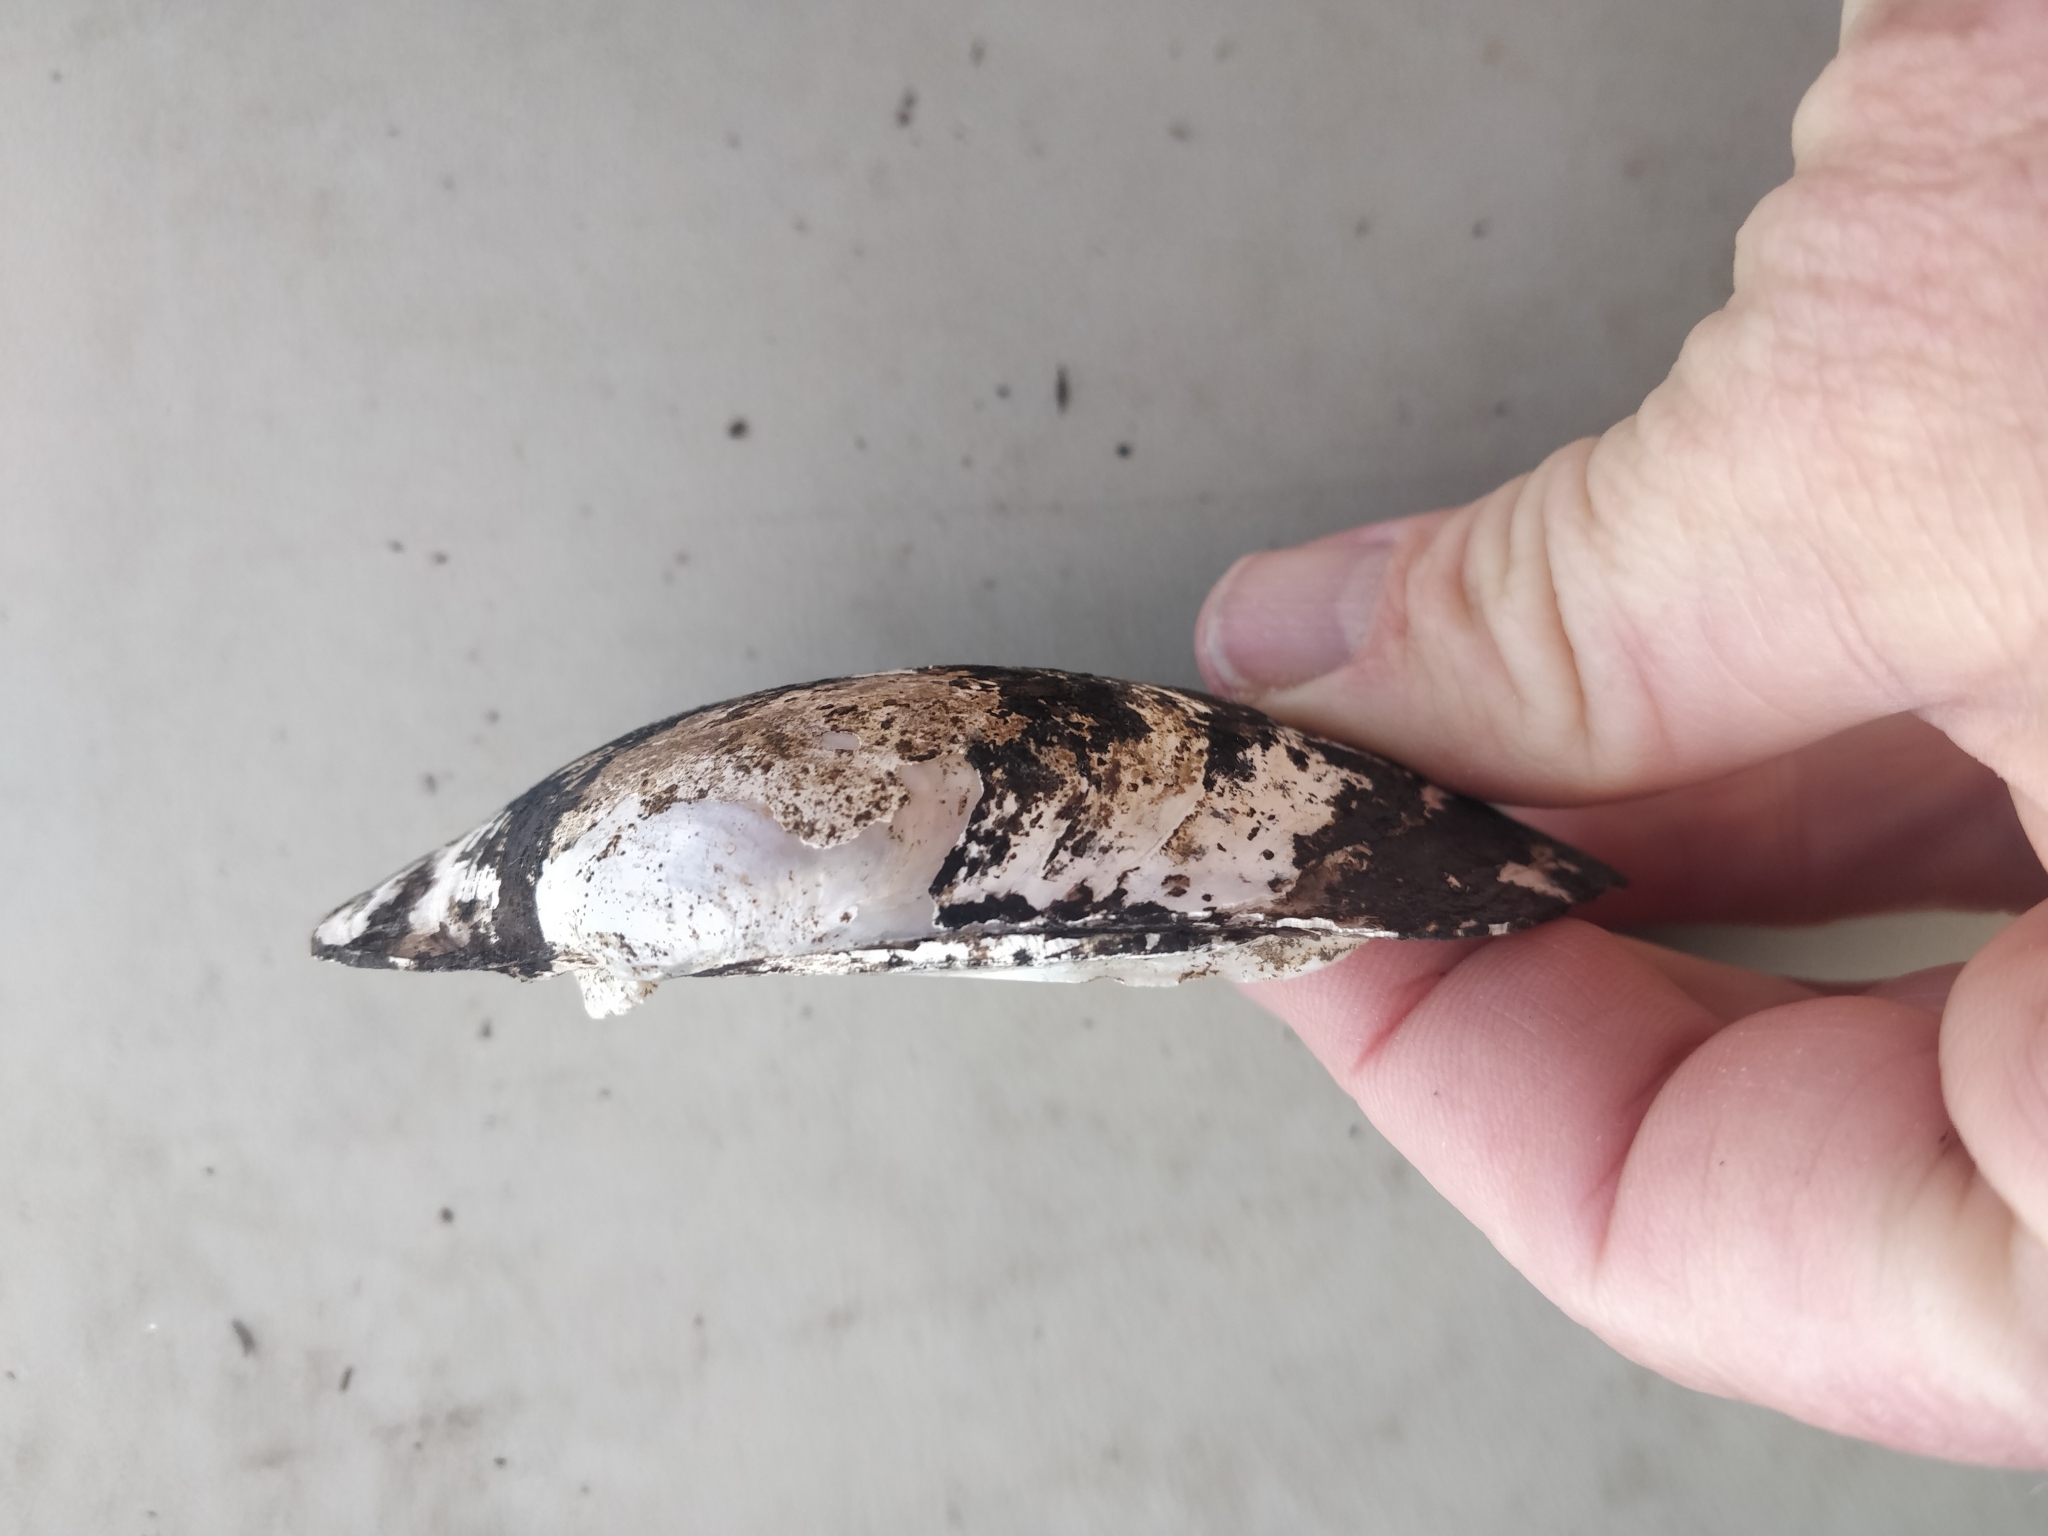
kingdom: Animalia
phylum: Mollusca
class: Bivalvia
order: Unionida
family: Unionidae
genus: Lampsilis
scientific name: Lampsilis cardium
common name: Plain pocketbook
